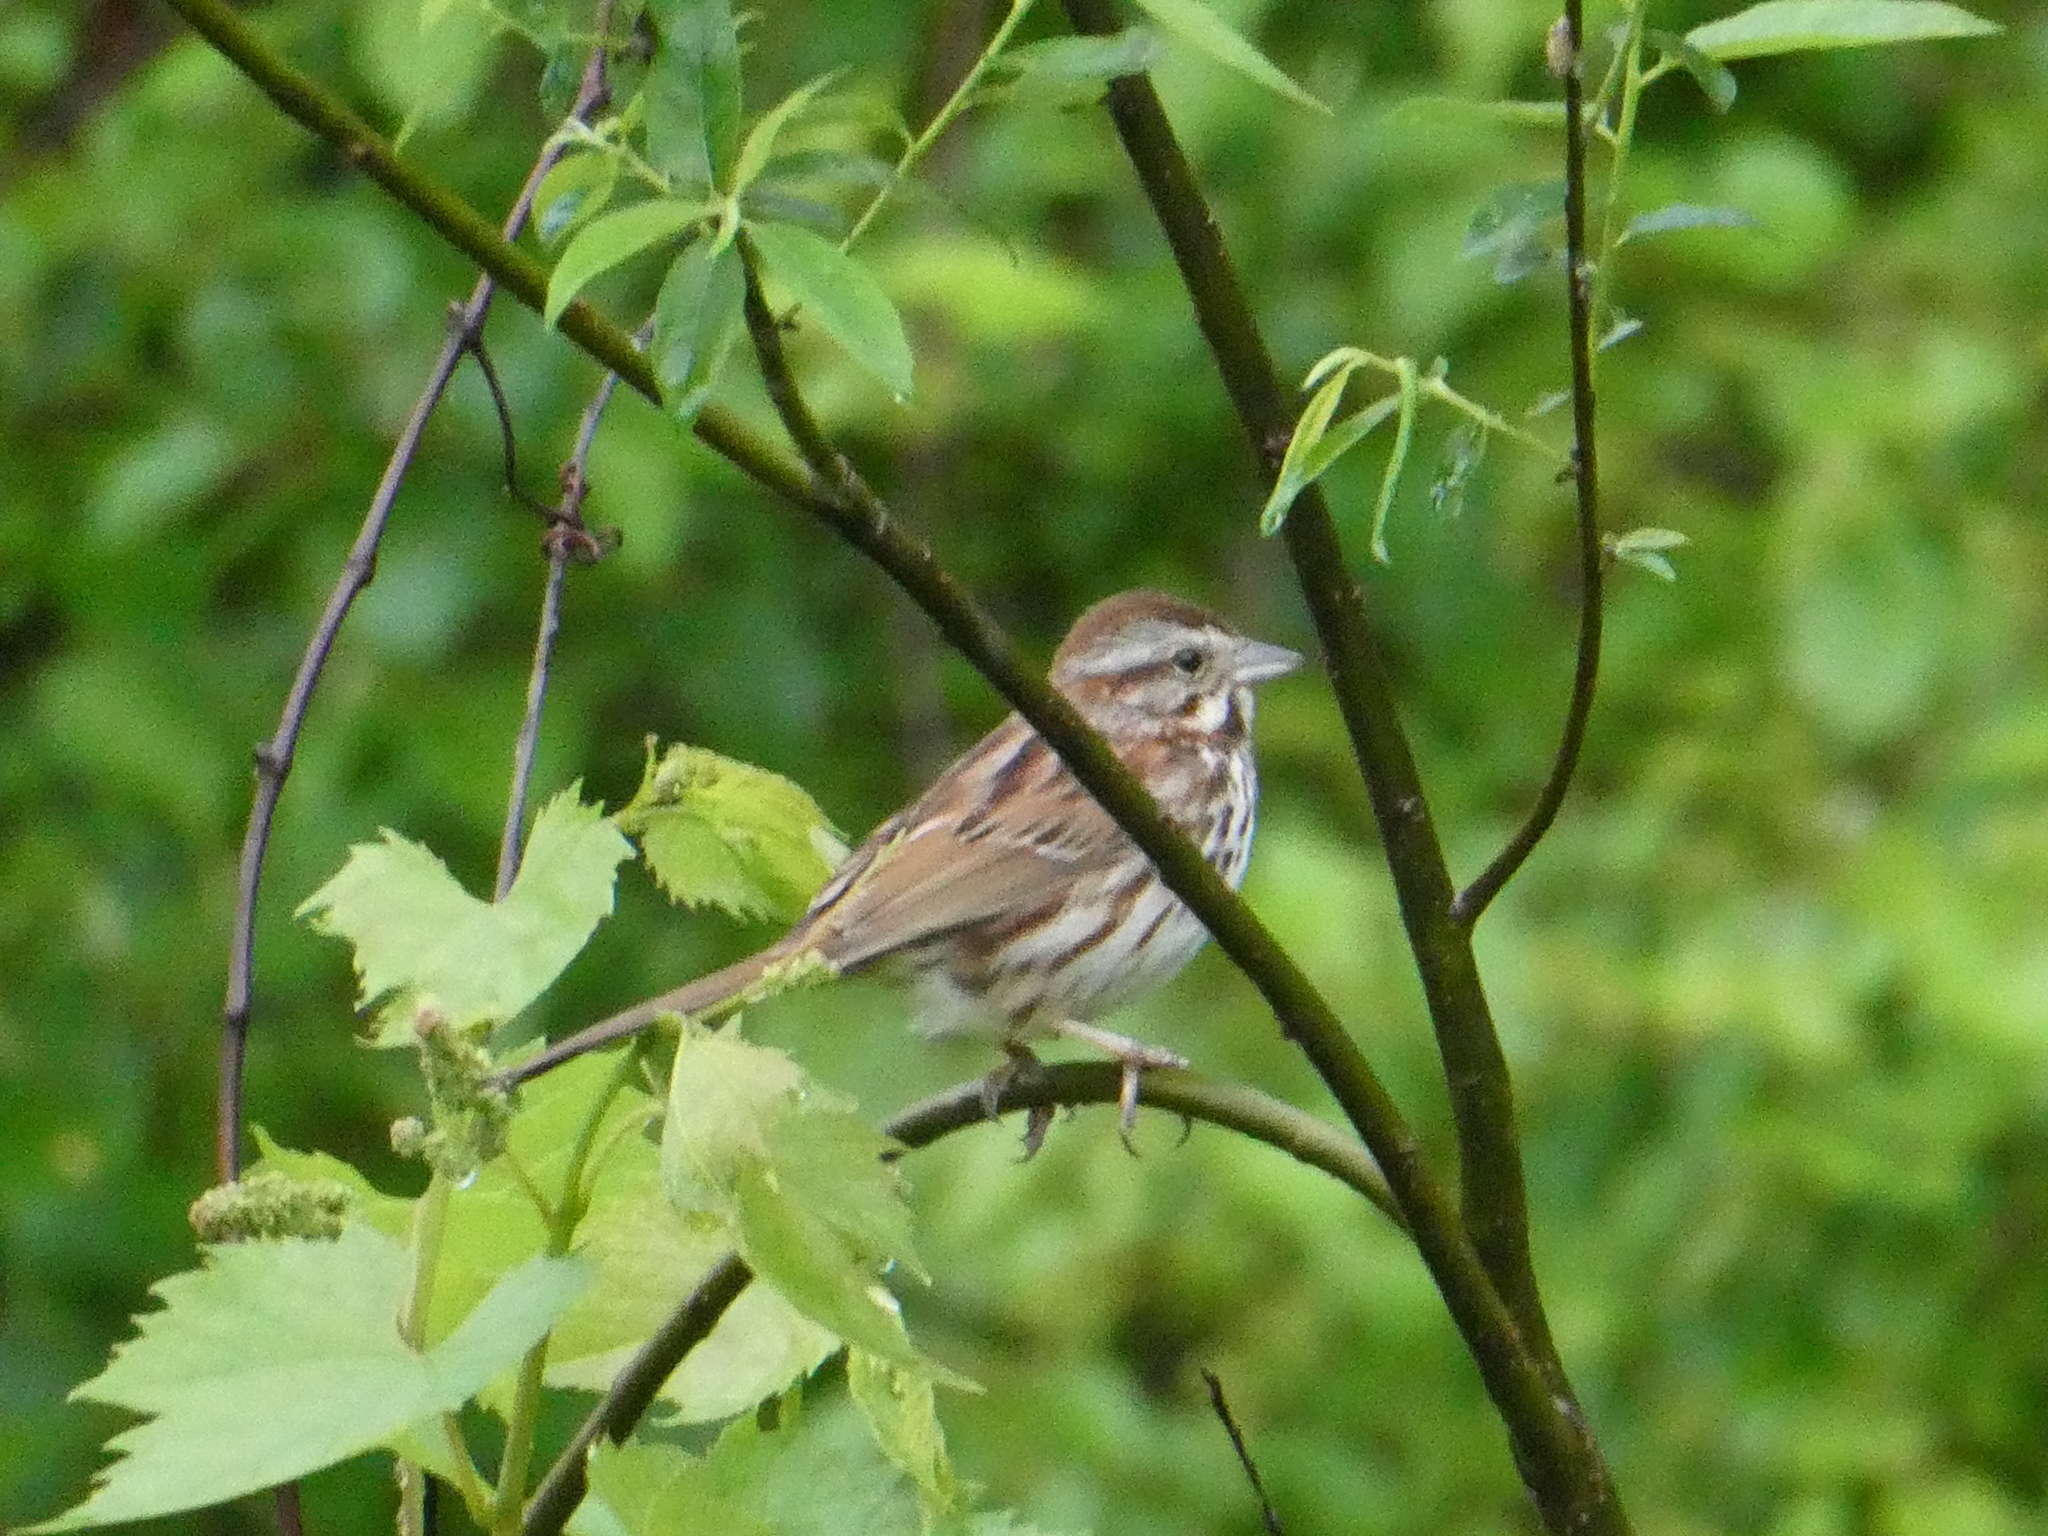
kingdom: Animalia
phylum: Chordata
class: Aves
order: Passeriformes
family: Passerellidae
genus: Melospiza
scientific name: Melospiza melodia
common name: Song sparrow
